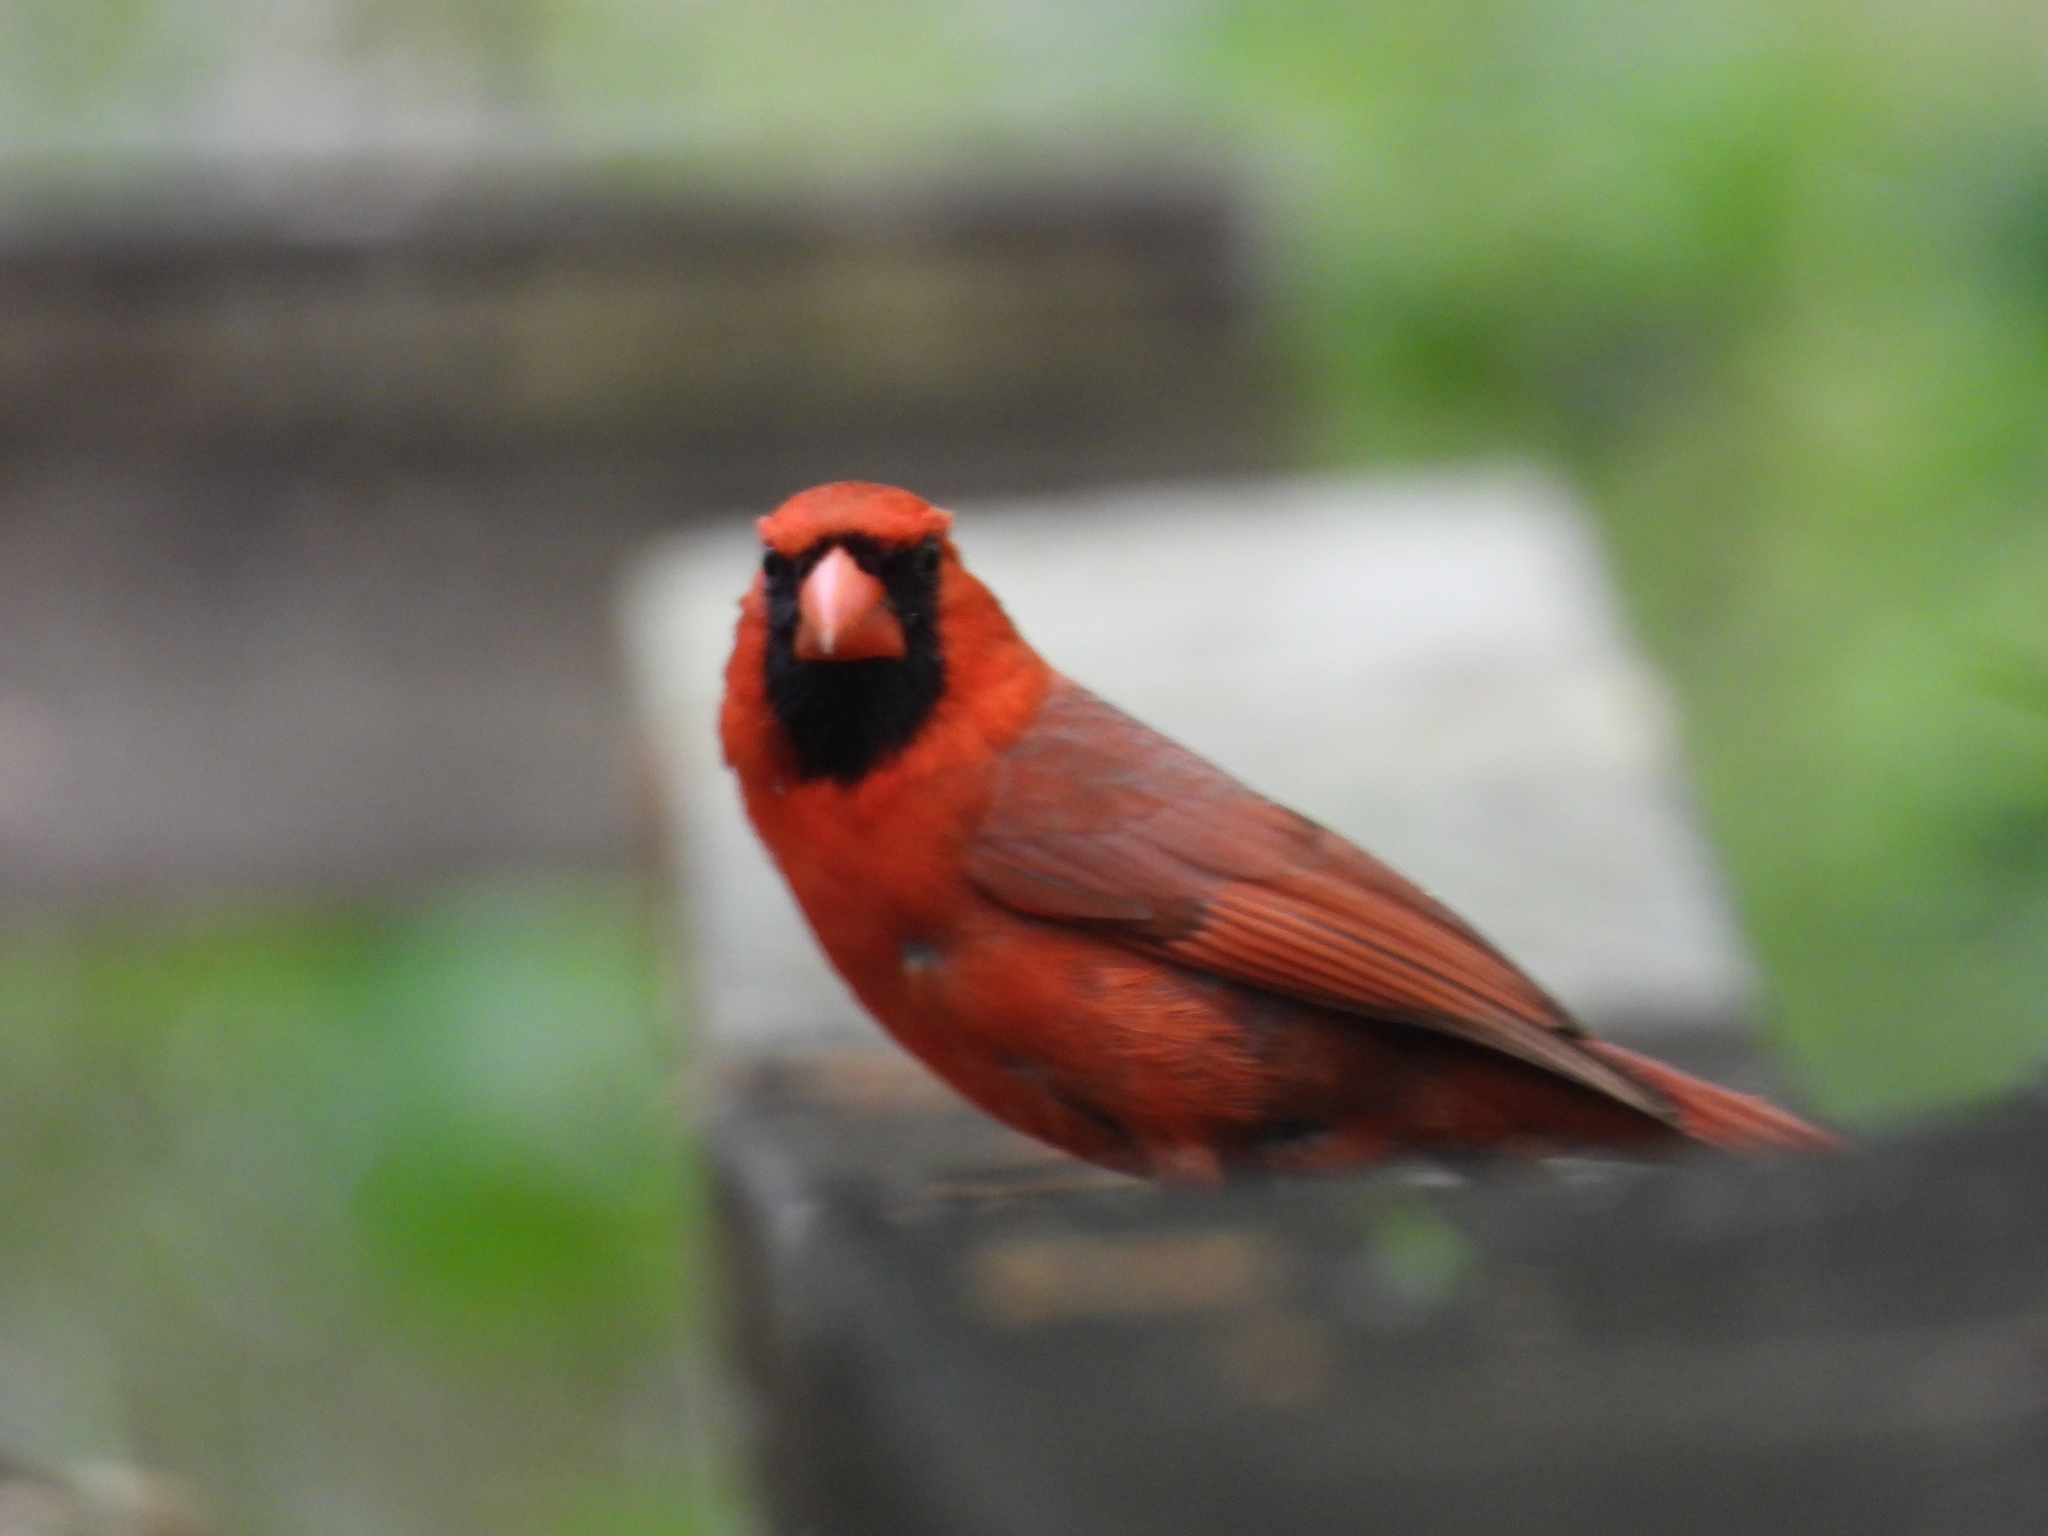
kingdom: Animalia
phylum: Chordata
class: Aves
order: Passeriformes
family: Cardinalidae
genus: Cardinalis
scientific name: Cardinalis cardinalis
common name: Northern cardinal
